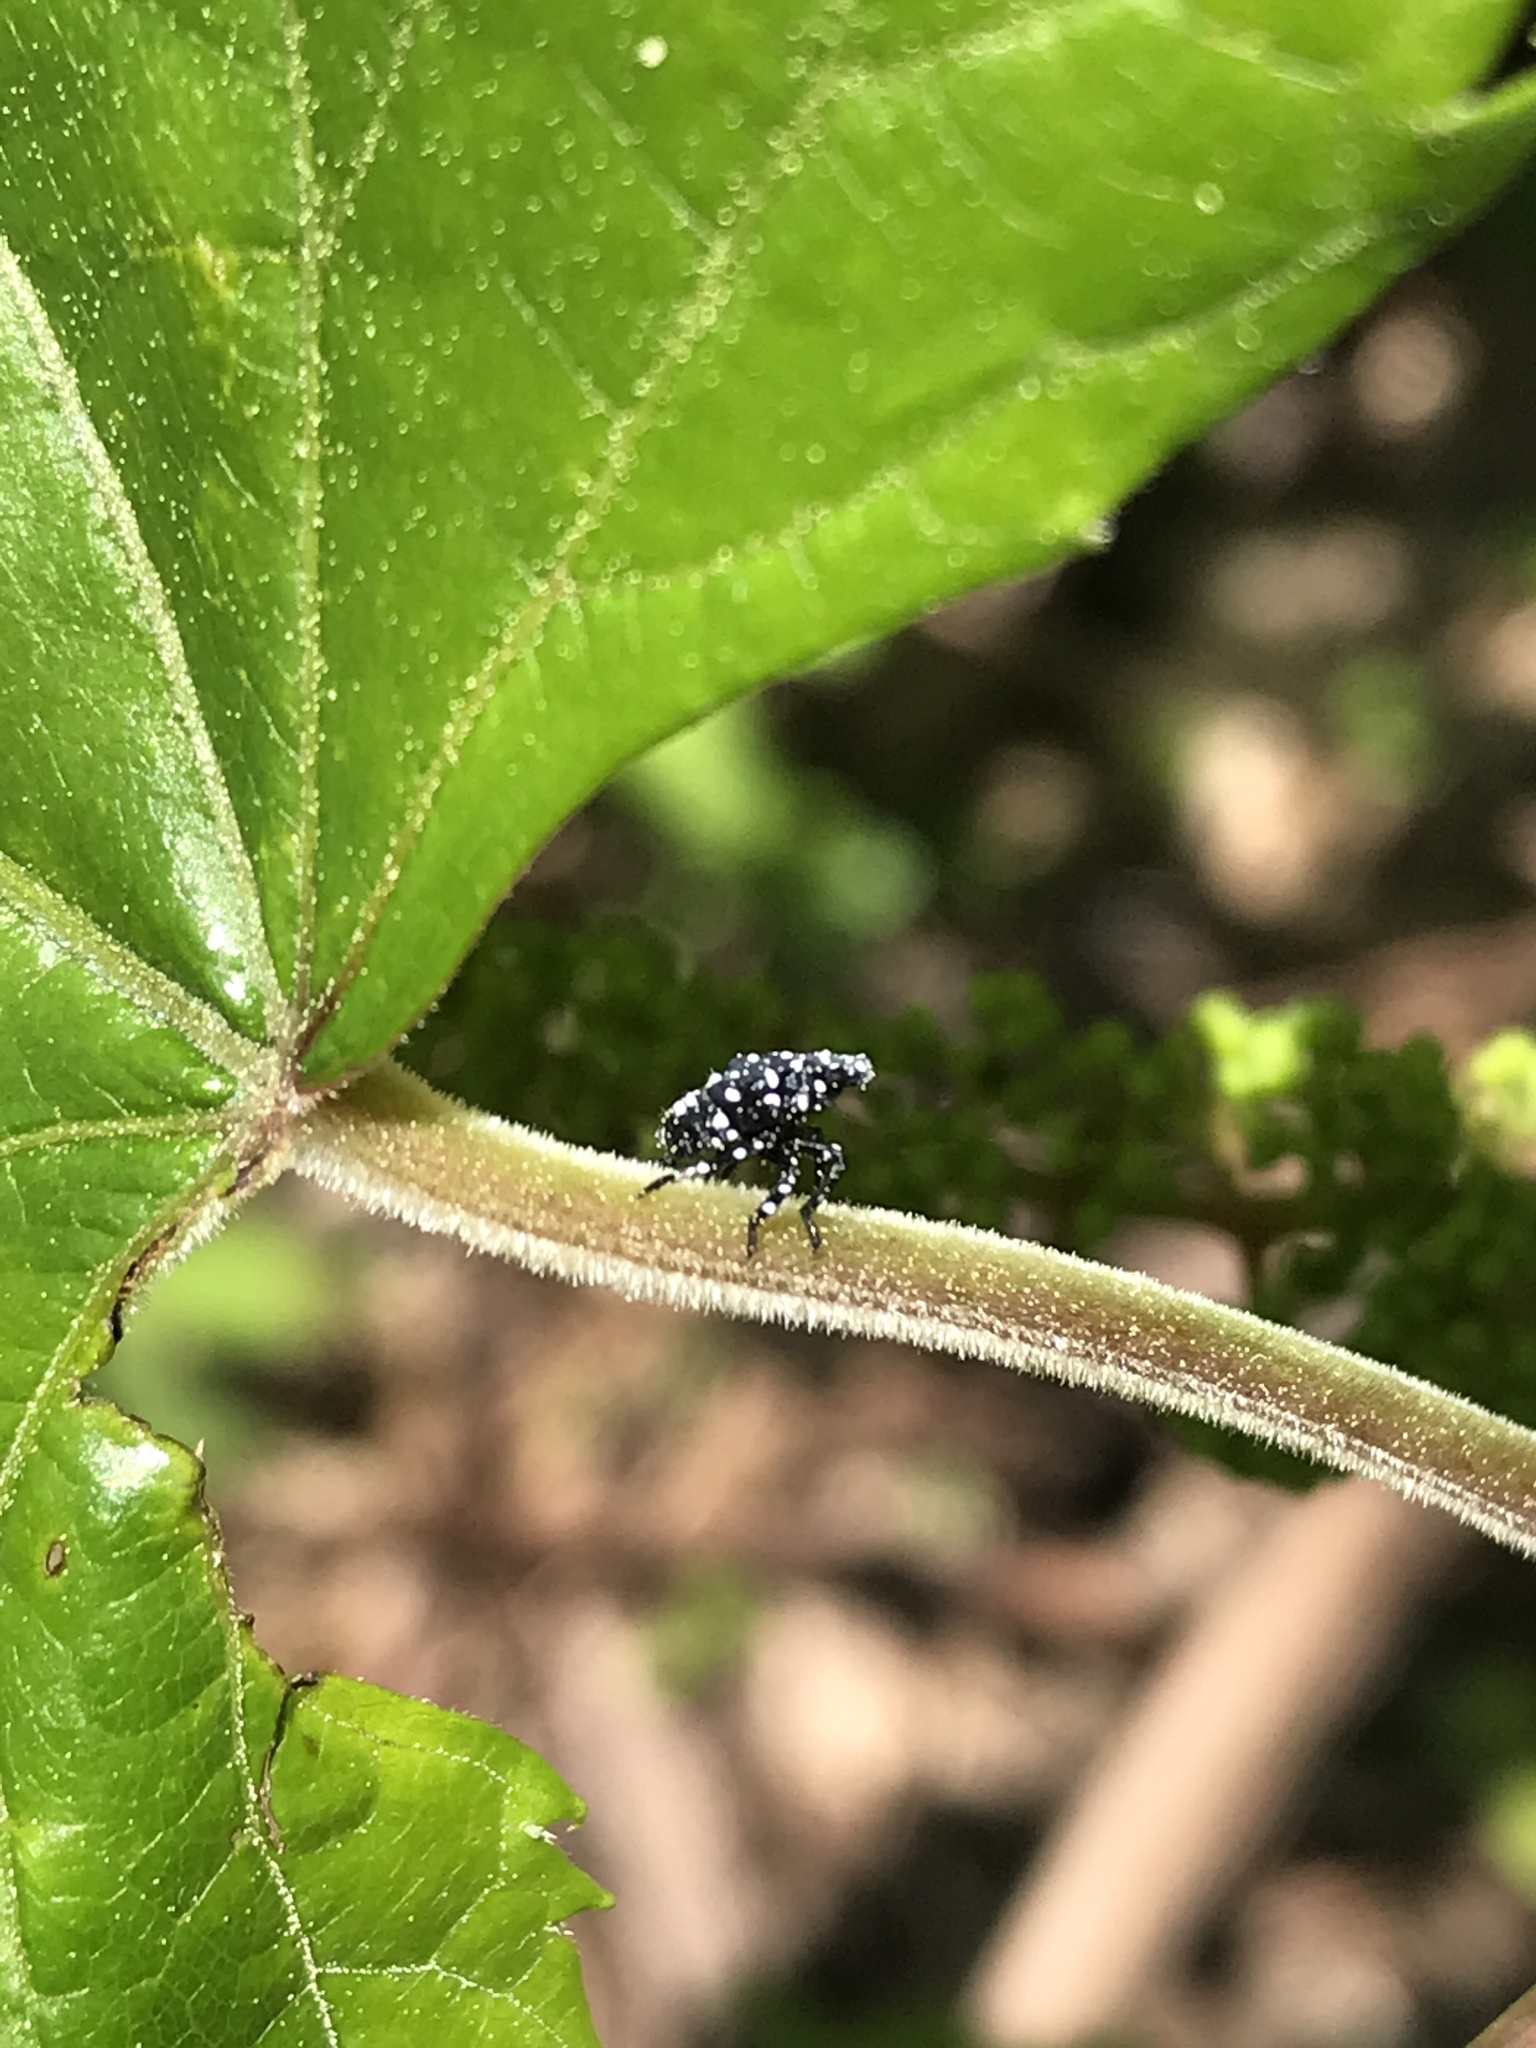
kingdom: Animalia
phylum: Arthropoda
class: Insecta
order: Hemiptera
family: Fulgoridae
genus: Lycorma
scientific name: Lycorma delicatula
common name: Spotted lanternfly
